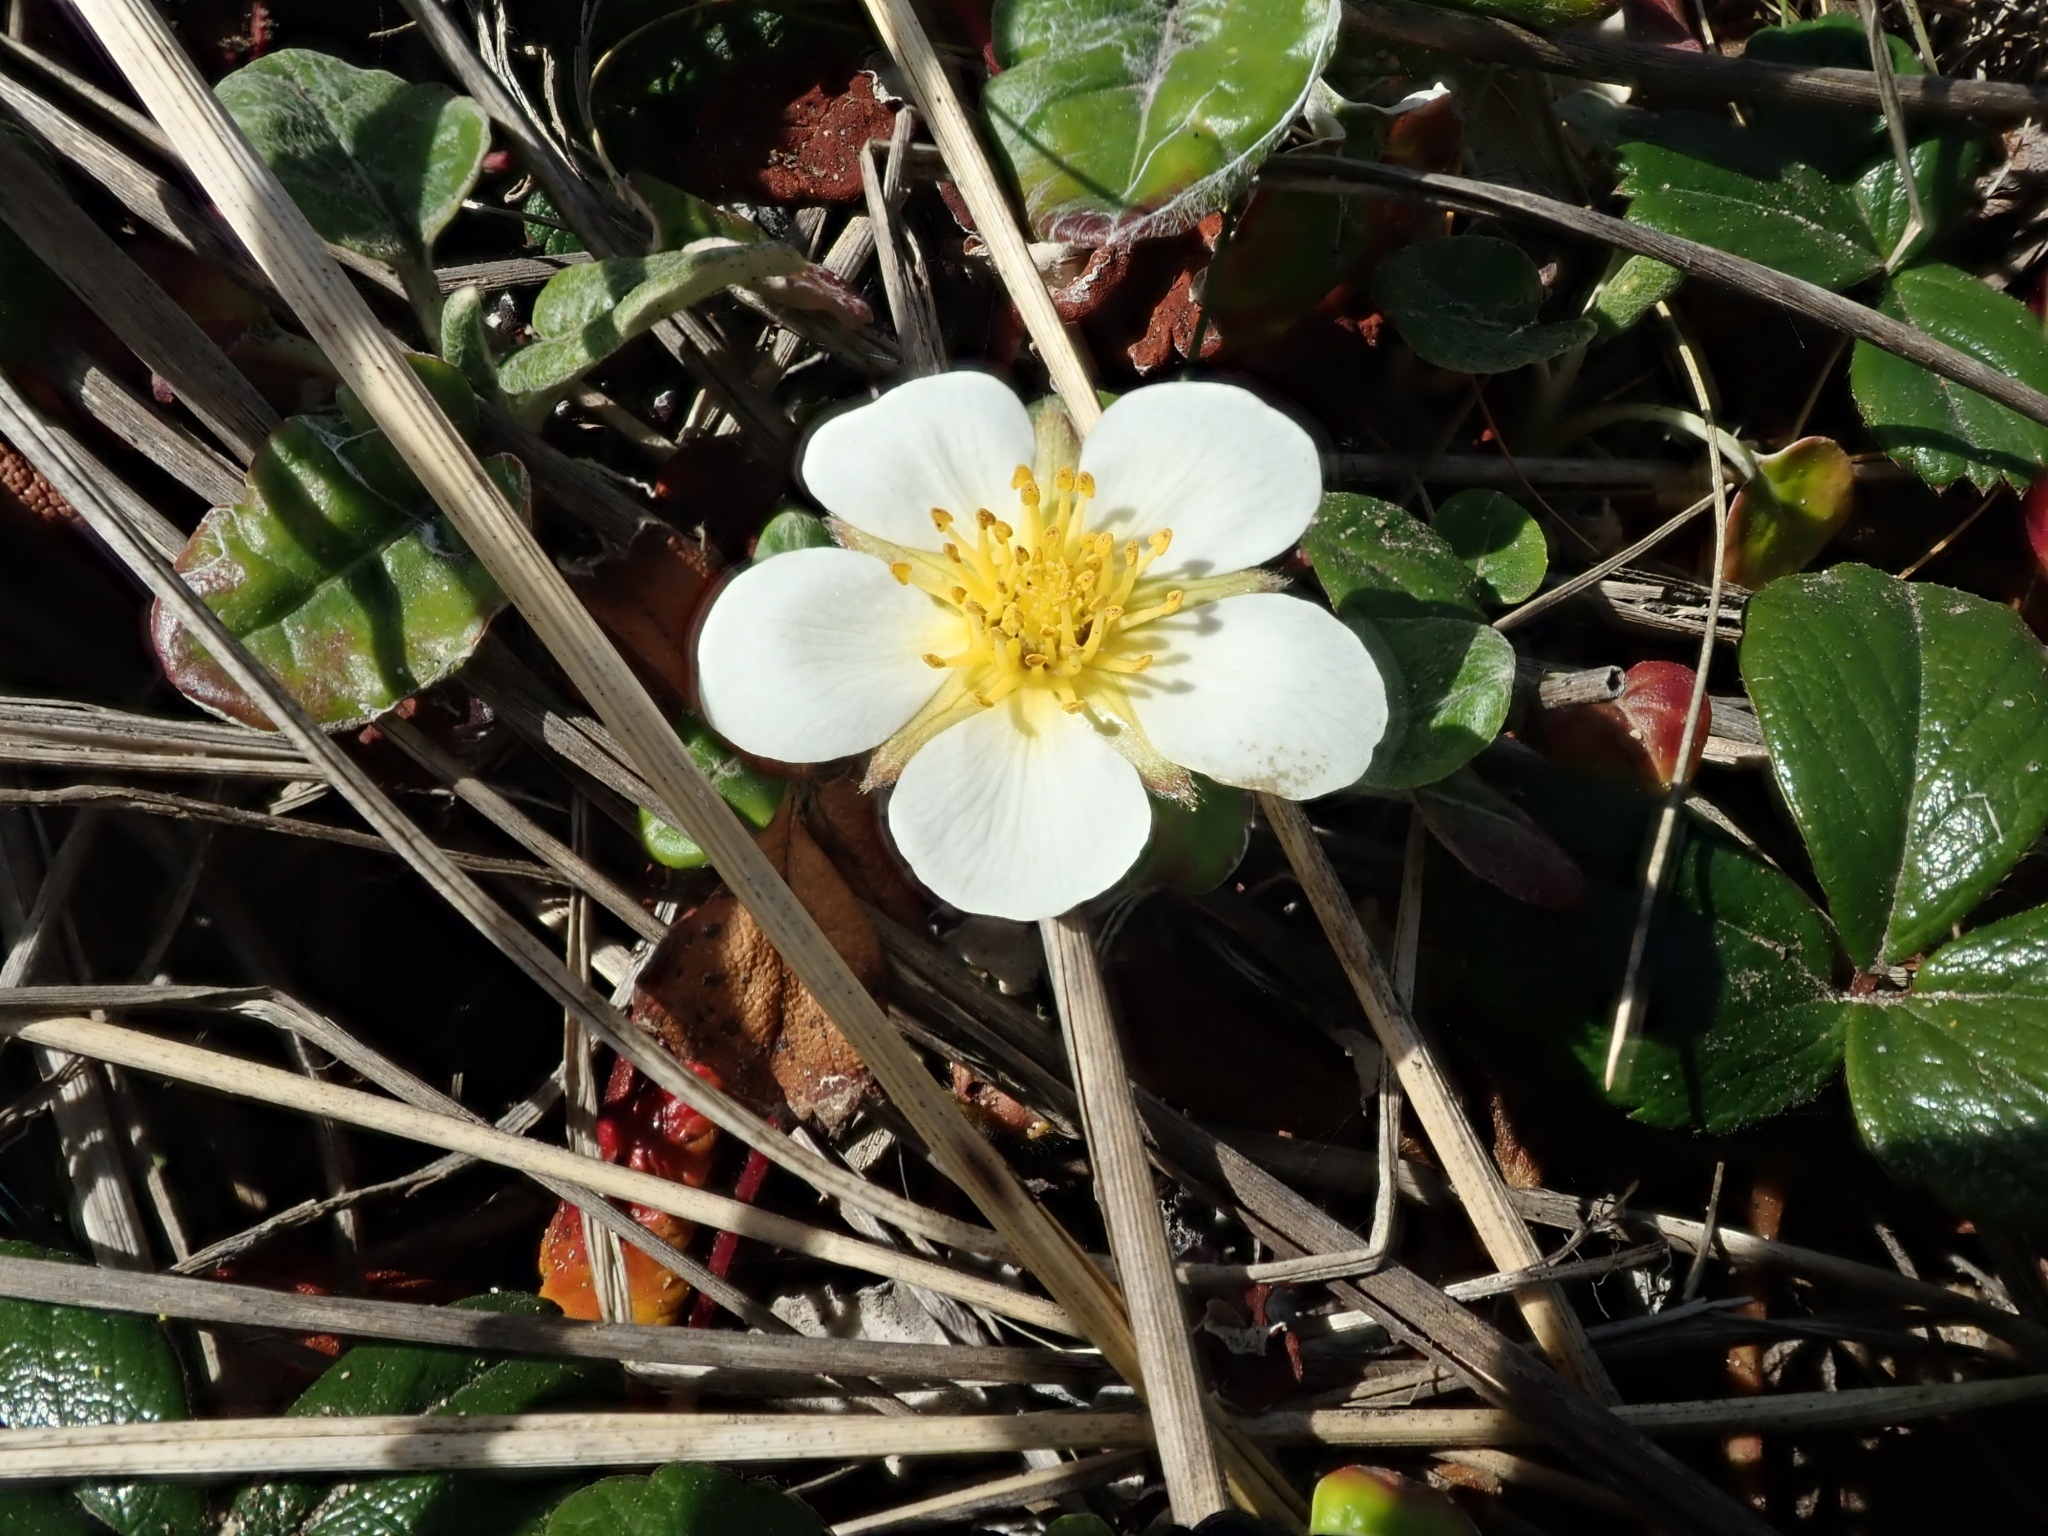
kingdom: Plantae
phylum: Tracheophyta
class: Magnoliopsida
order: Rosales
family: Rosaceae
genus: Fragaria
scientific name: Fragaria chiloensis
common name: Beach strawberry
